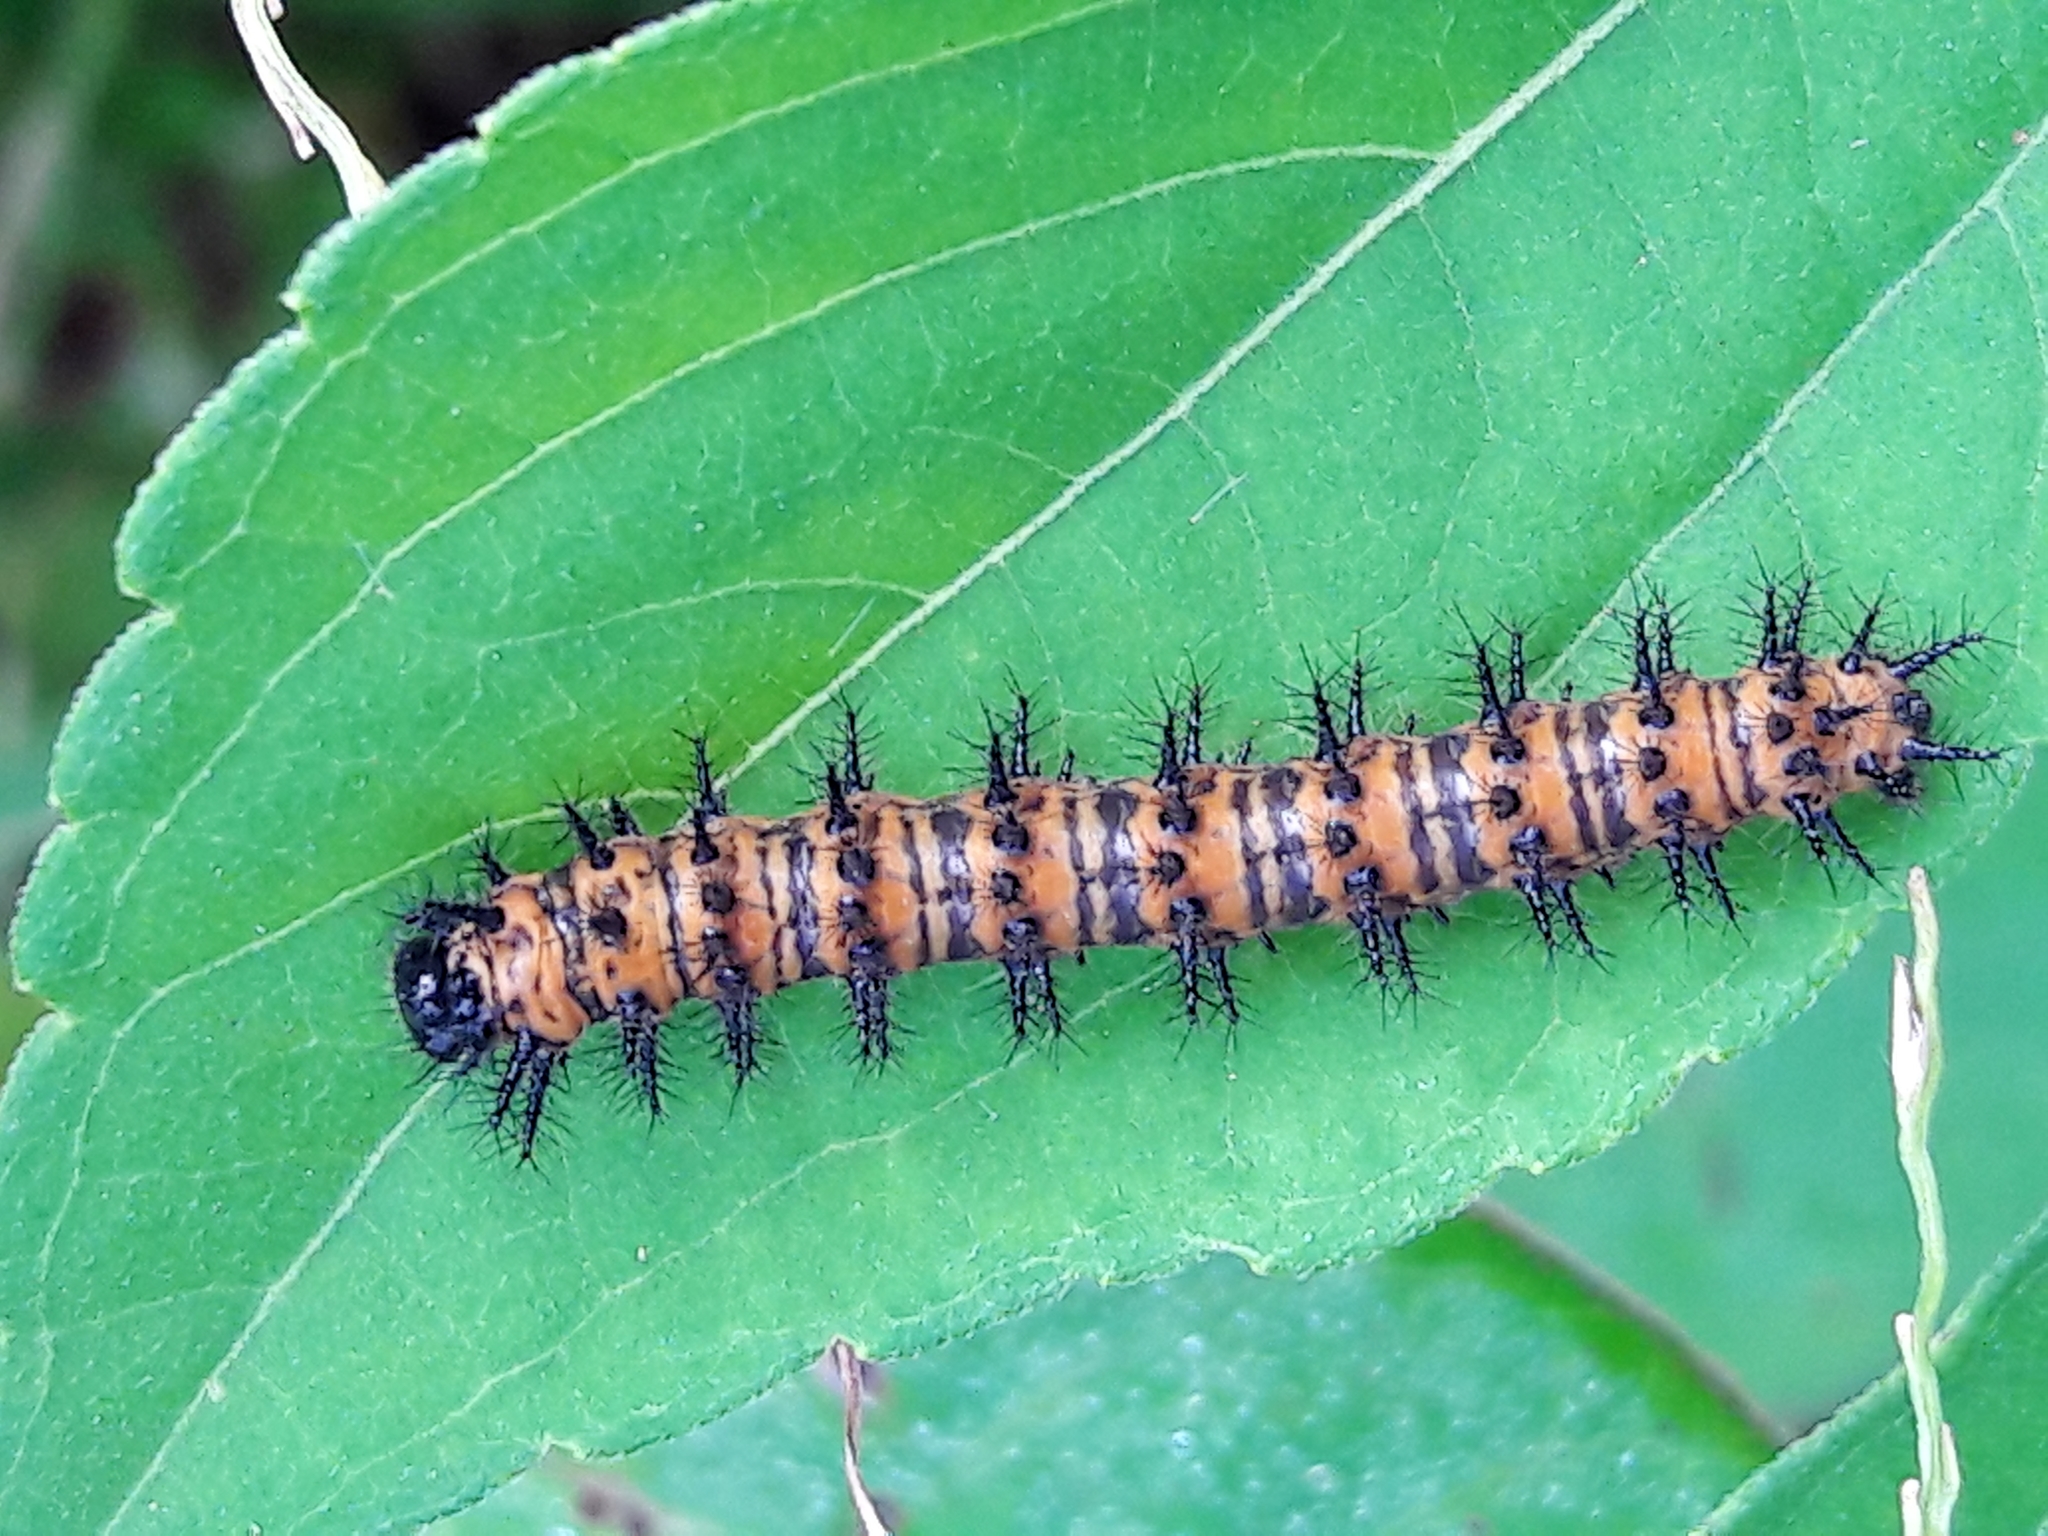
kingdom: Animalia
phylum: Arthropoda
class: Insecta
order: Lepidoptera
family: Nymphalidae
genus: Chlosyne
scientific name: Chlosyne lacinia
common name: Bordered patch
